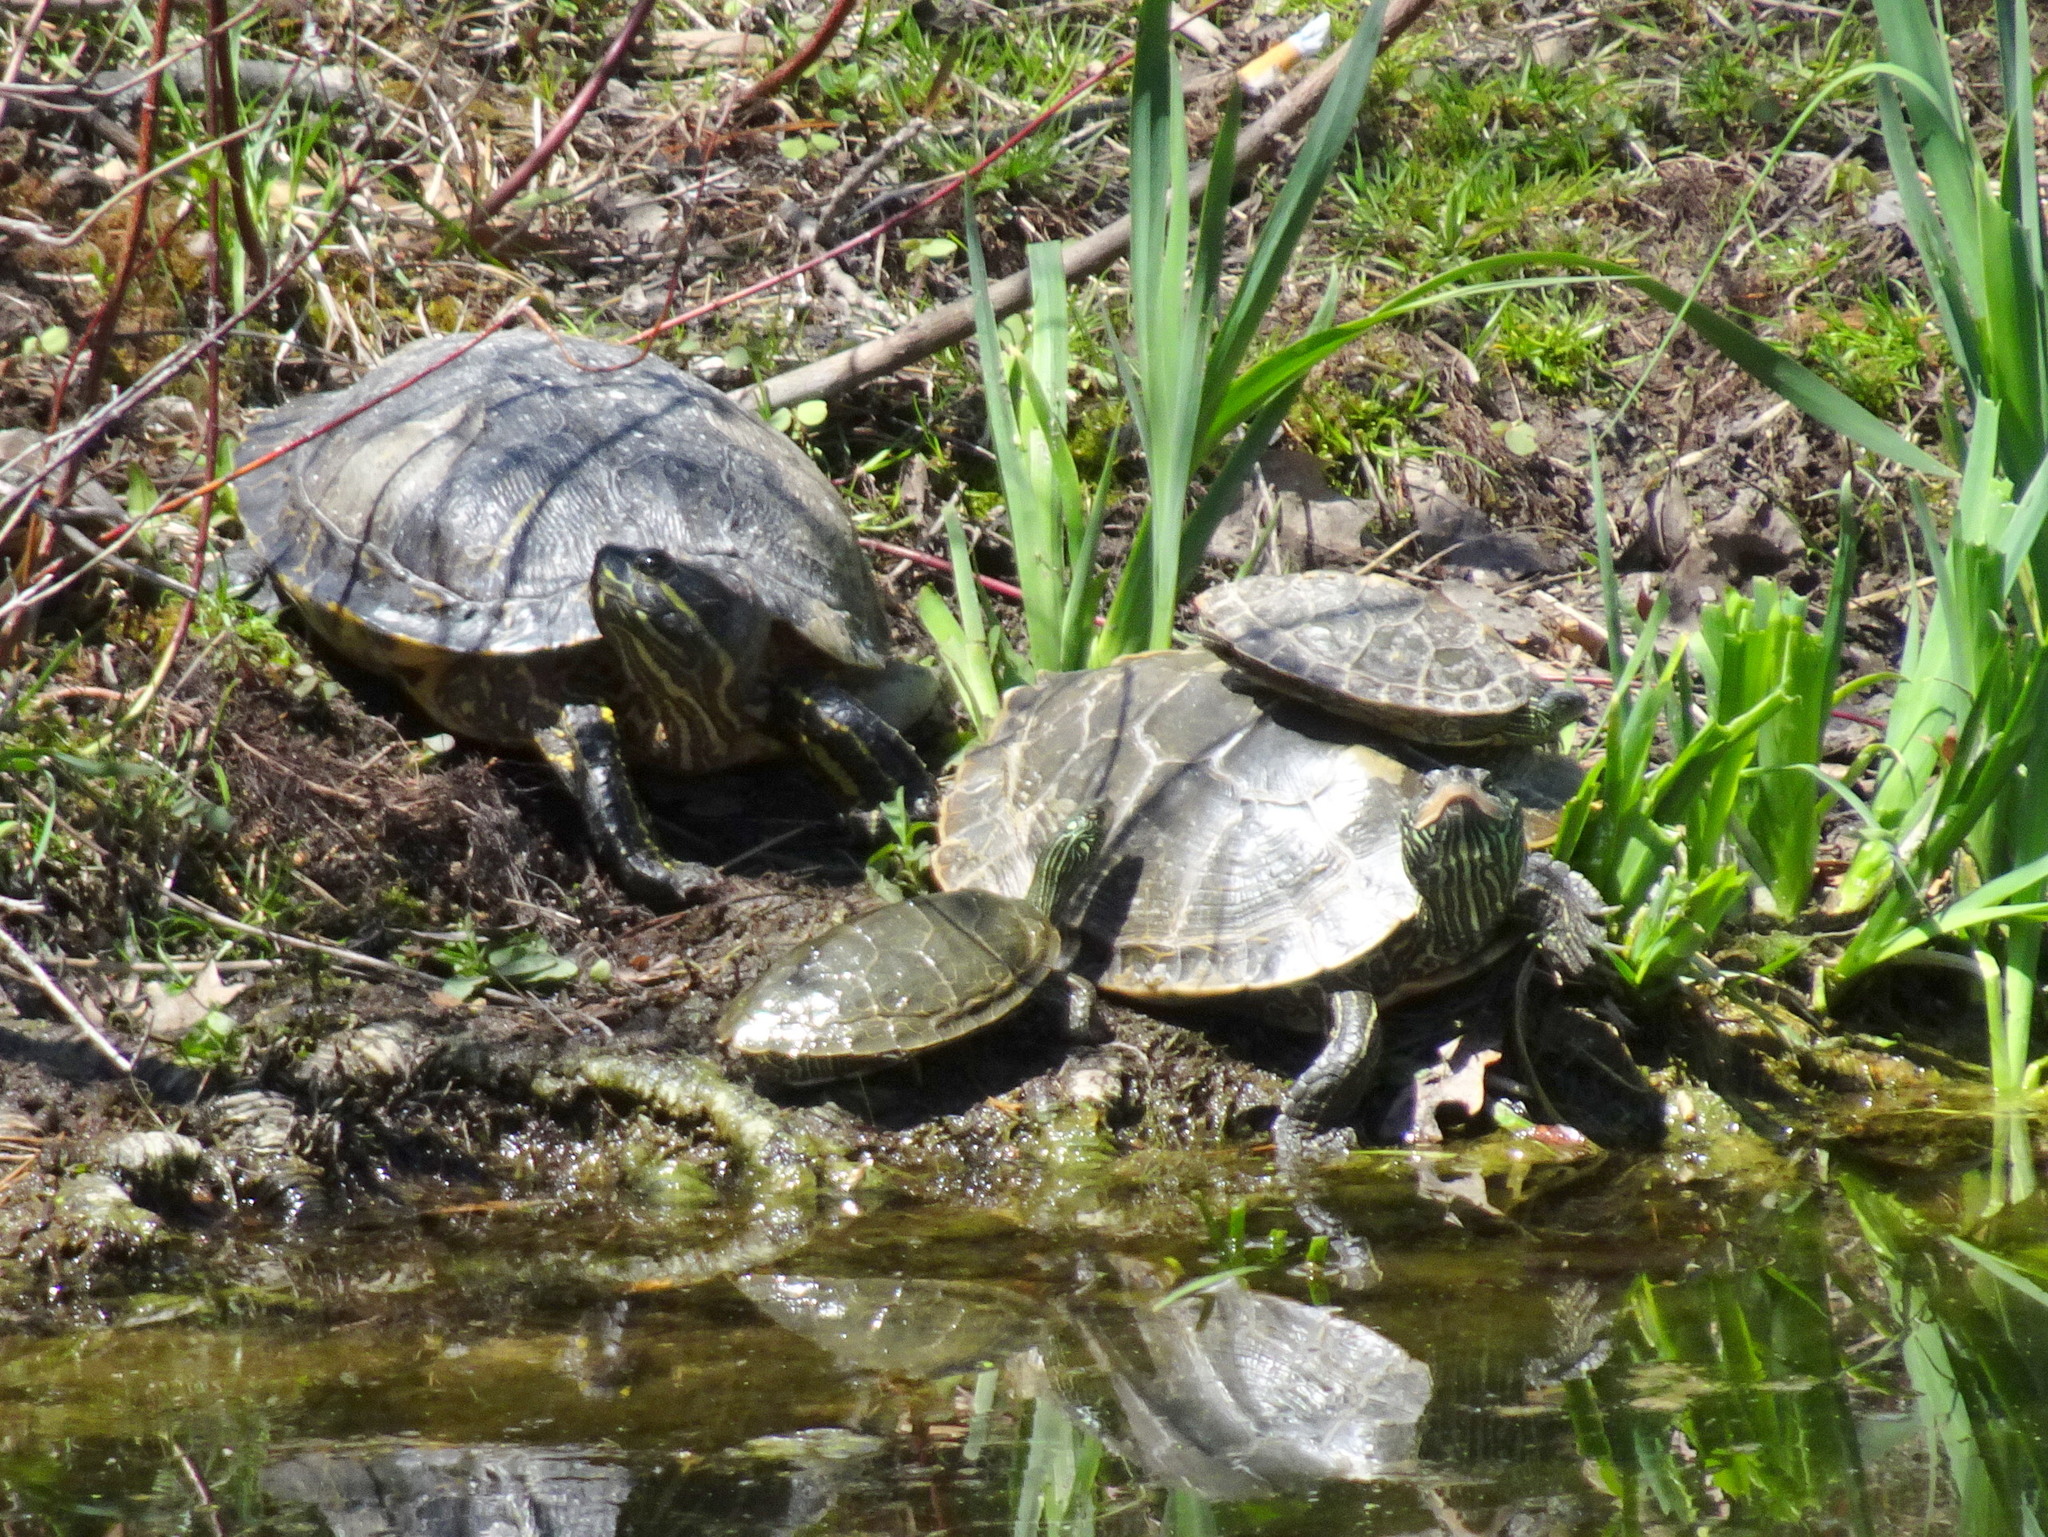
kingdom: Animalia
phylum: Chordata
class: Testudines
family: Emydidae
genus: Graptemys
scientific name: Graptemys geographica
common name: Common map turtle
